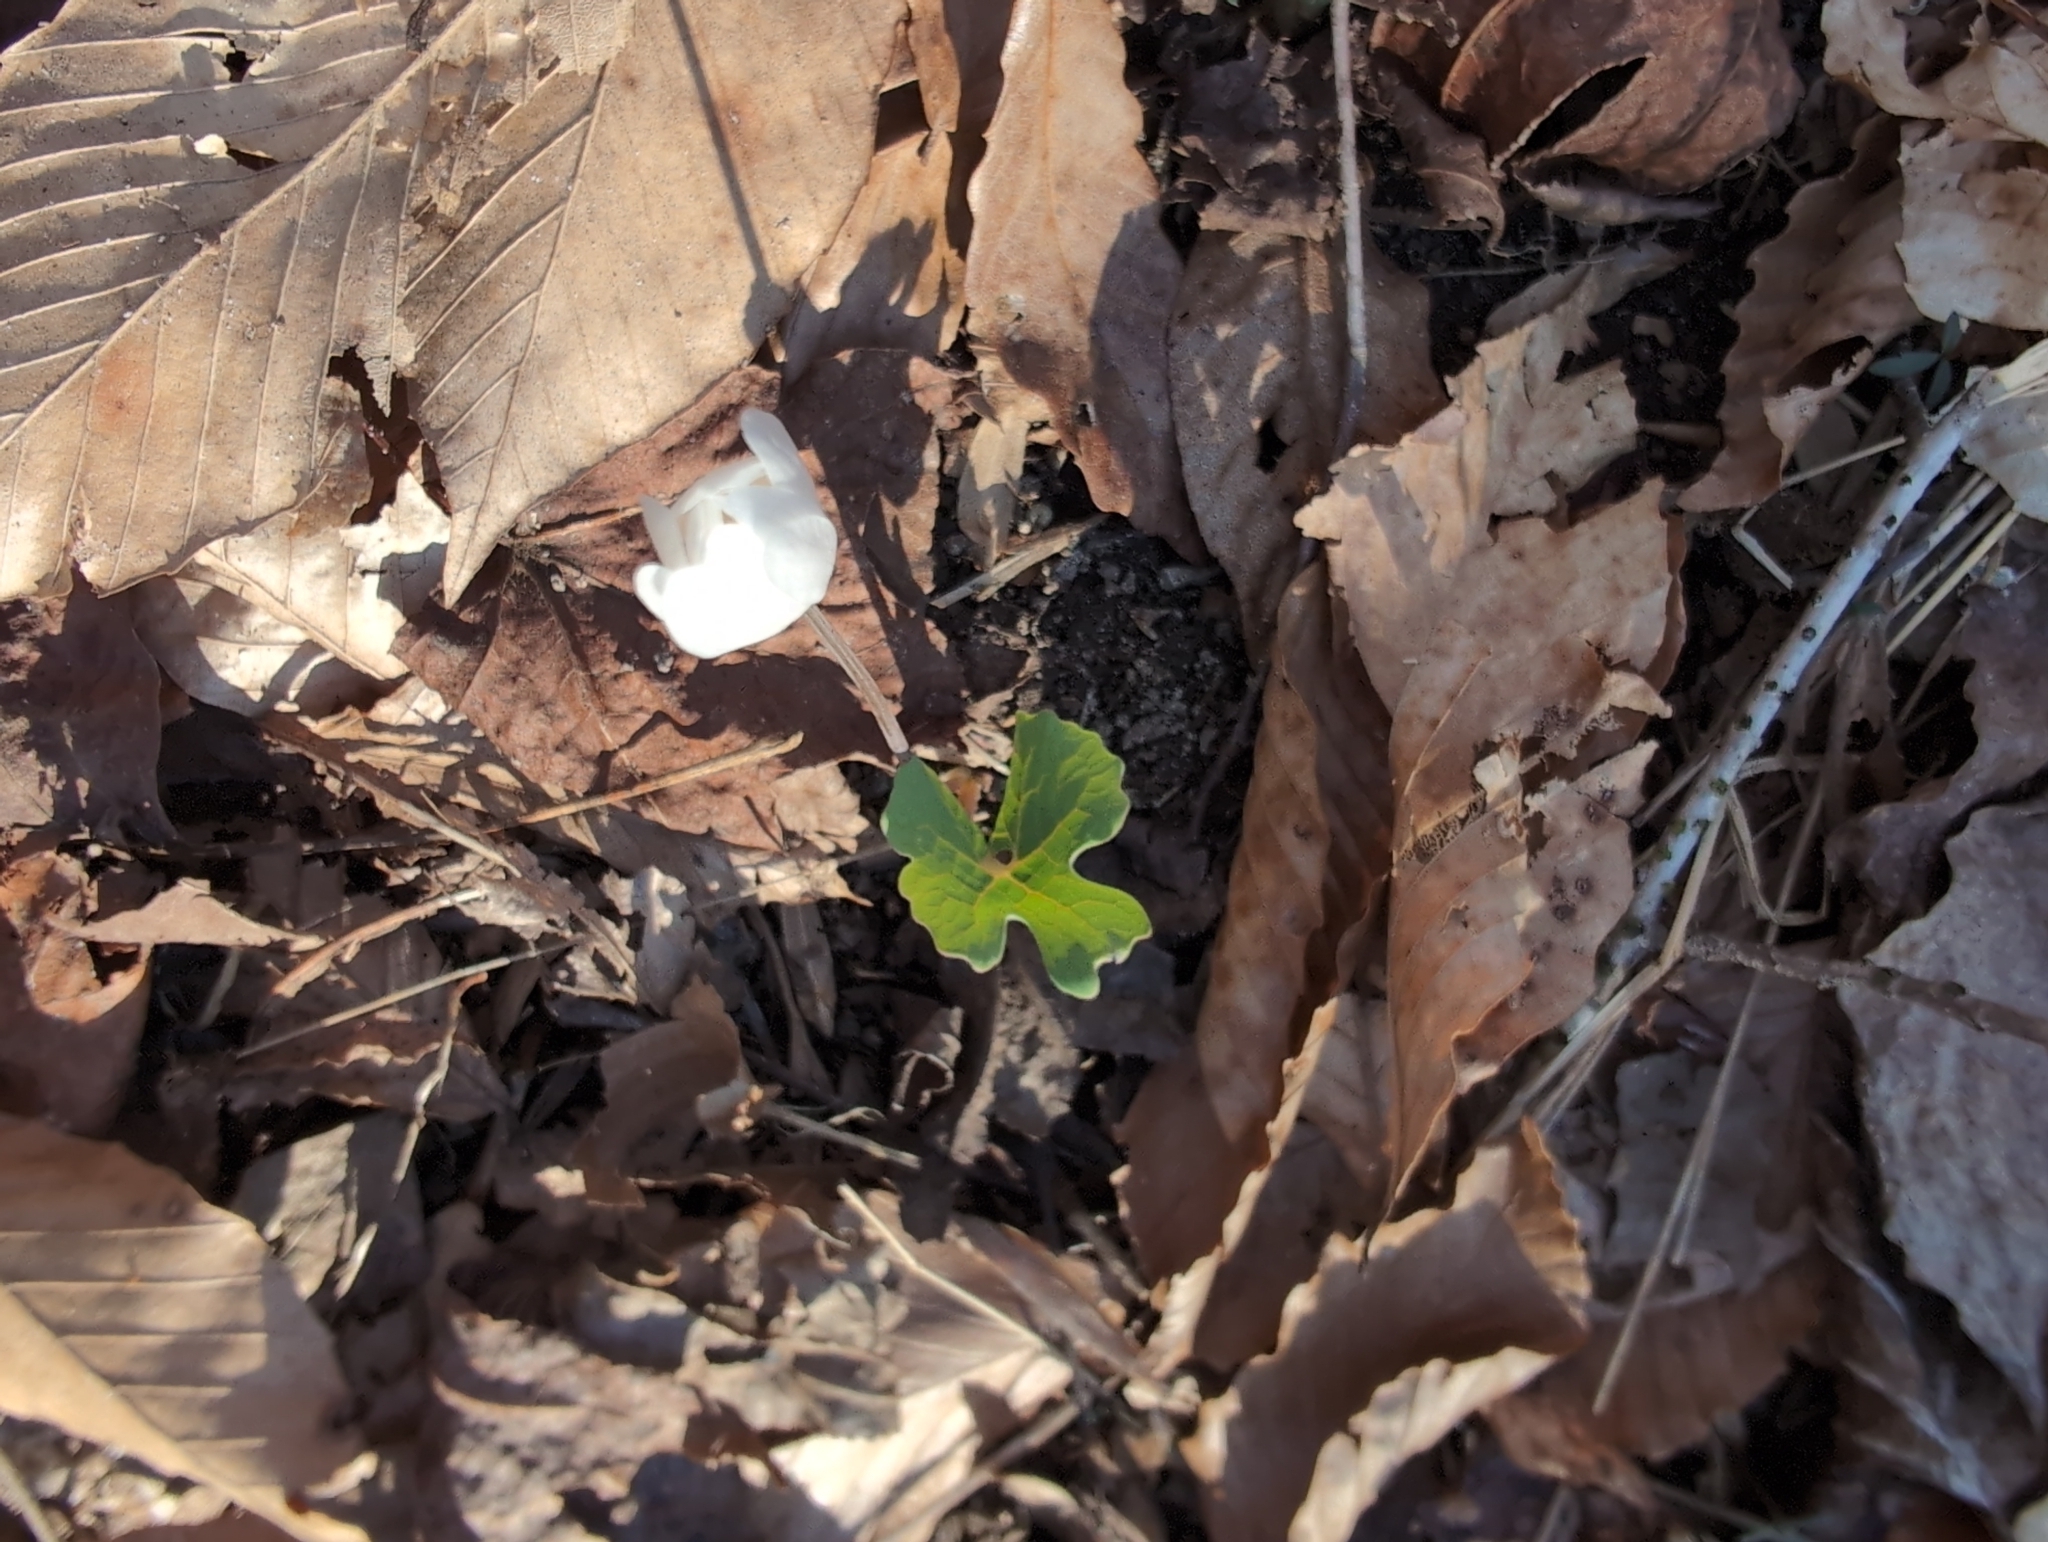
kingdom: Plantae
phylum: Tracheophyta
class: Magnoliopsida
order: Ranunculales
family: Papaveraceae
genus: Sanguinaria
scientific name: Sanguinaria canadensis
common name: Bloodroot
